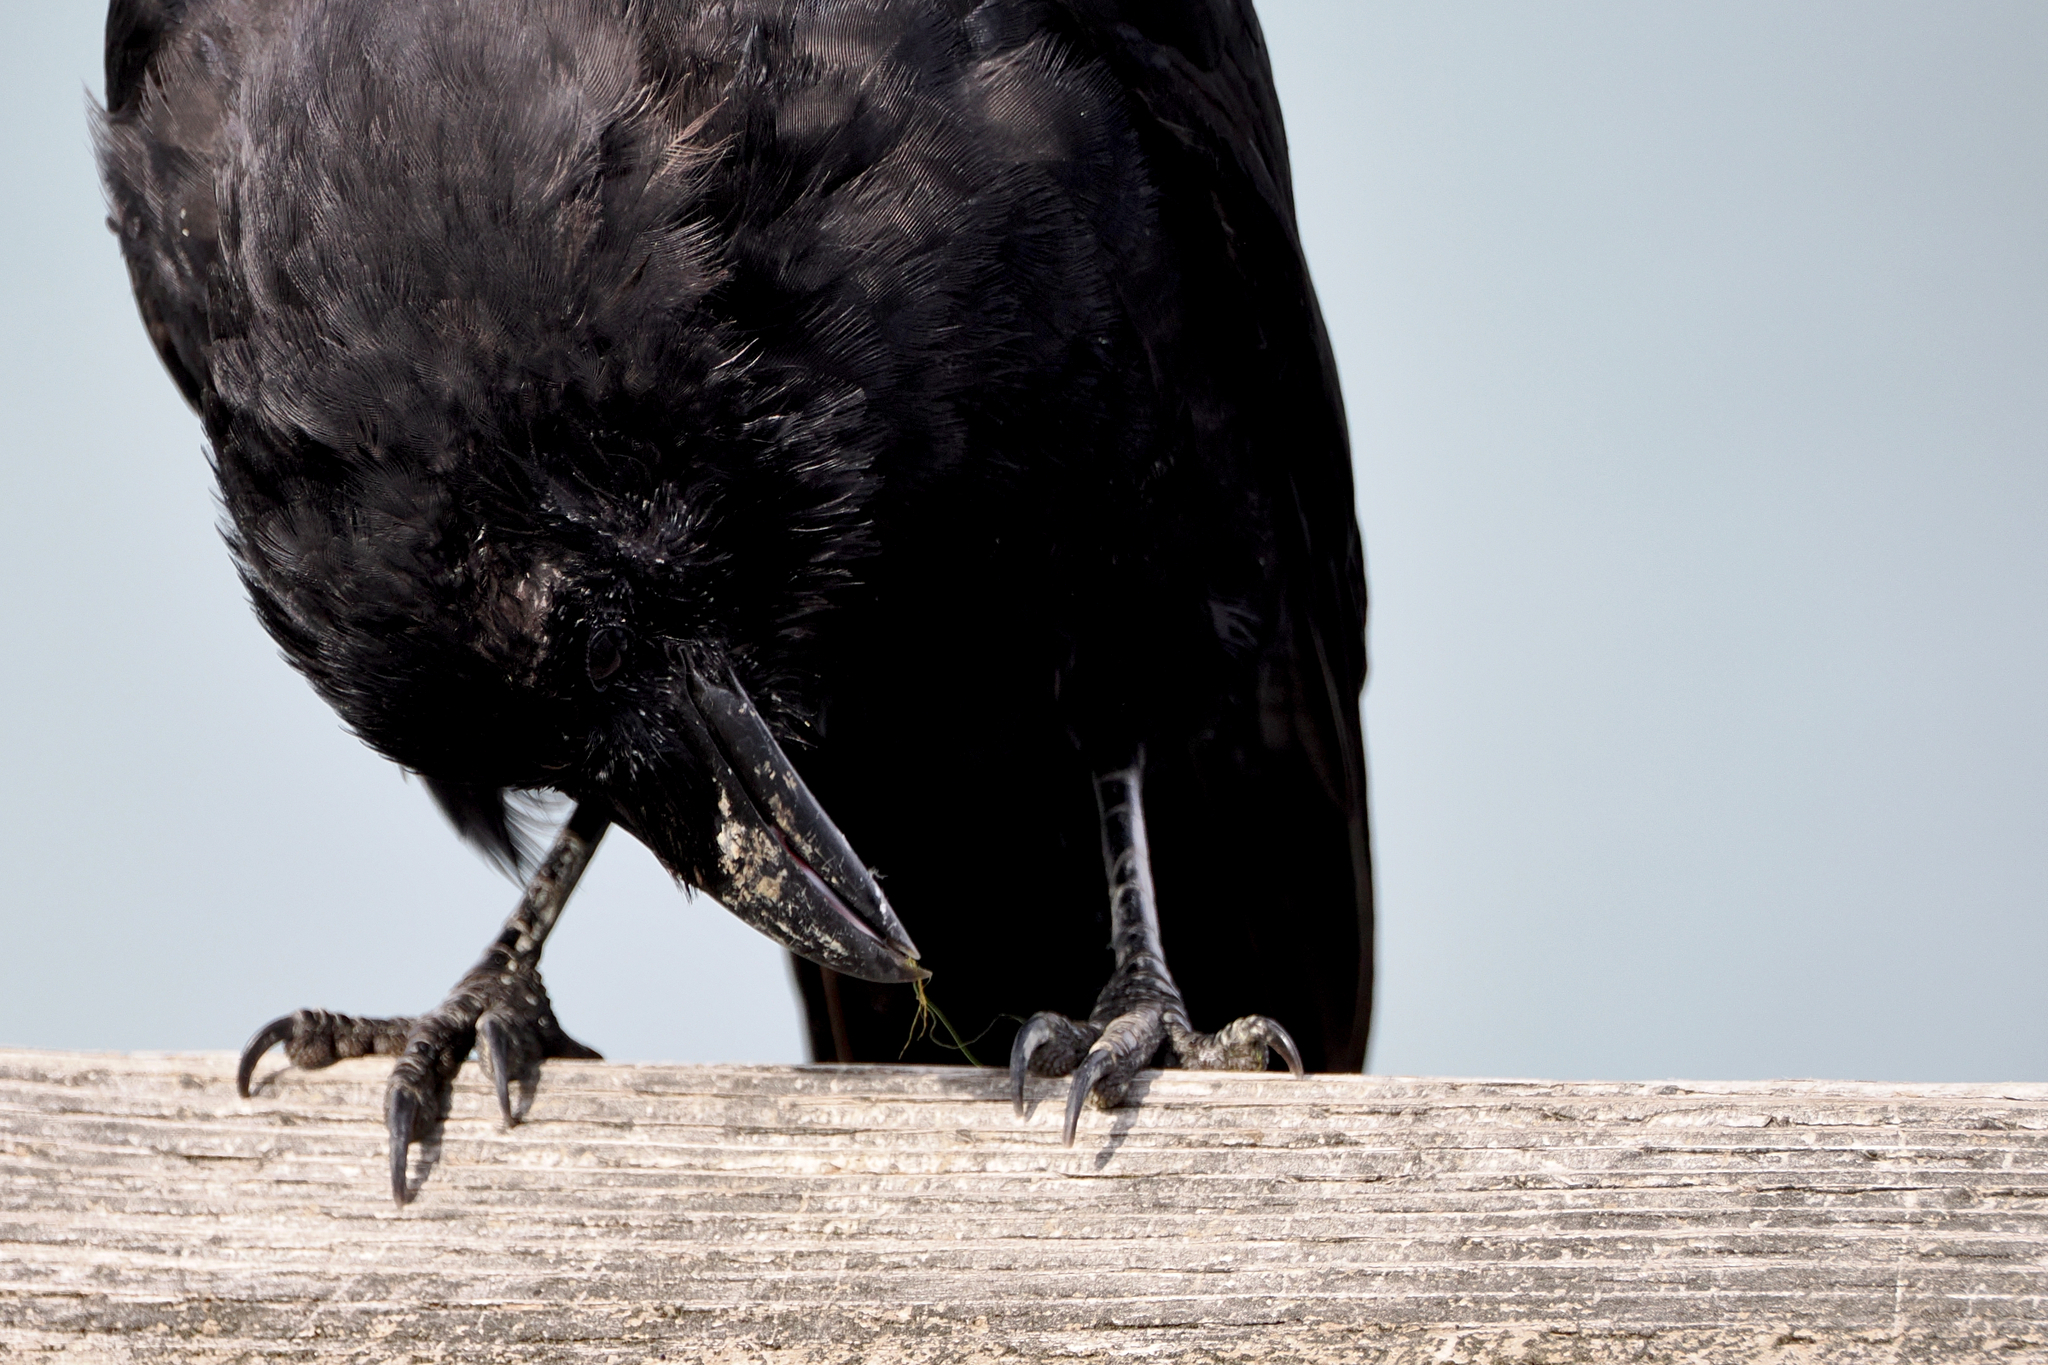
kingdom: Animalia
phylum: Chordata
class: Aves
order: Passeriformes
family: Corvidae
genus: Corvus
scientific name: Corvus brachyrhynchos
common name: American crow
